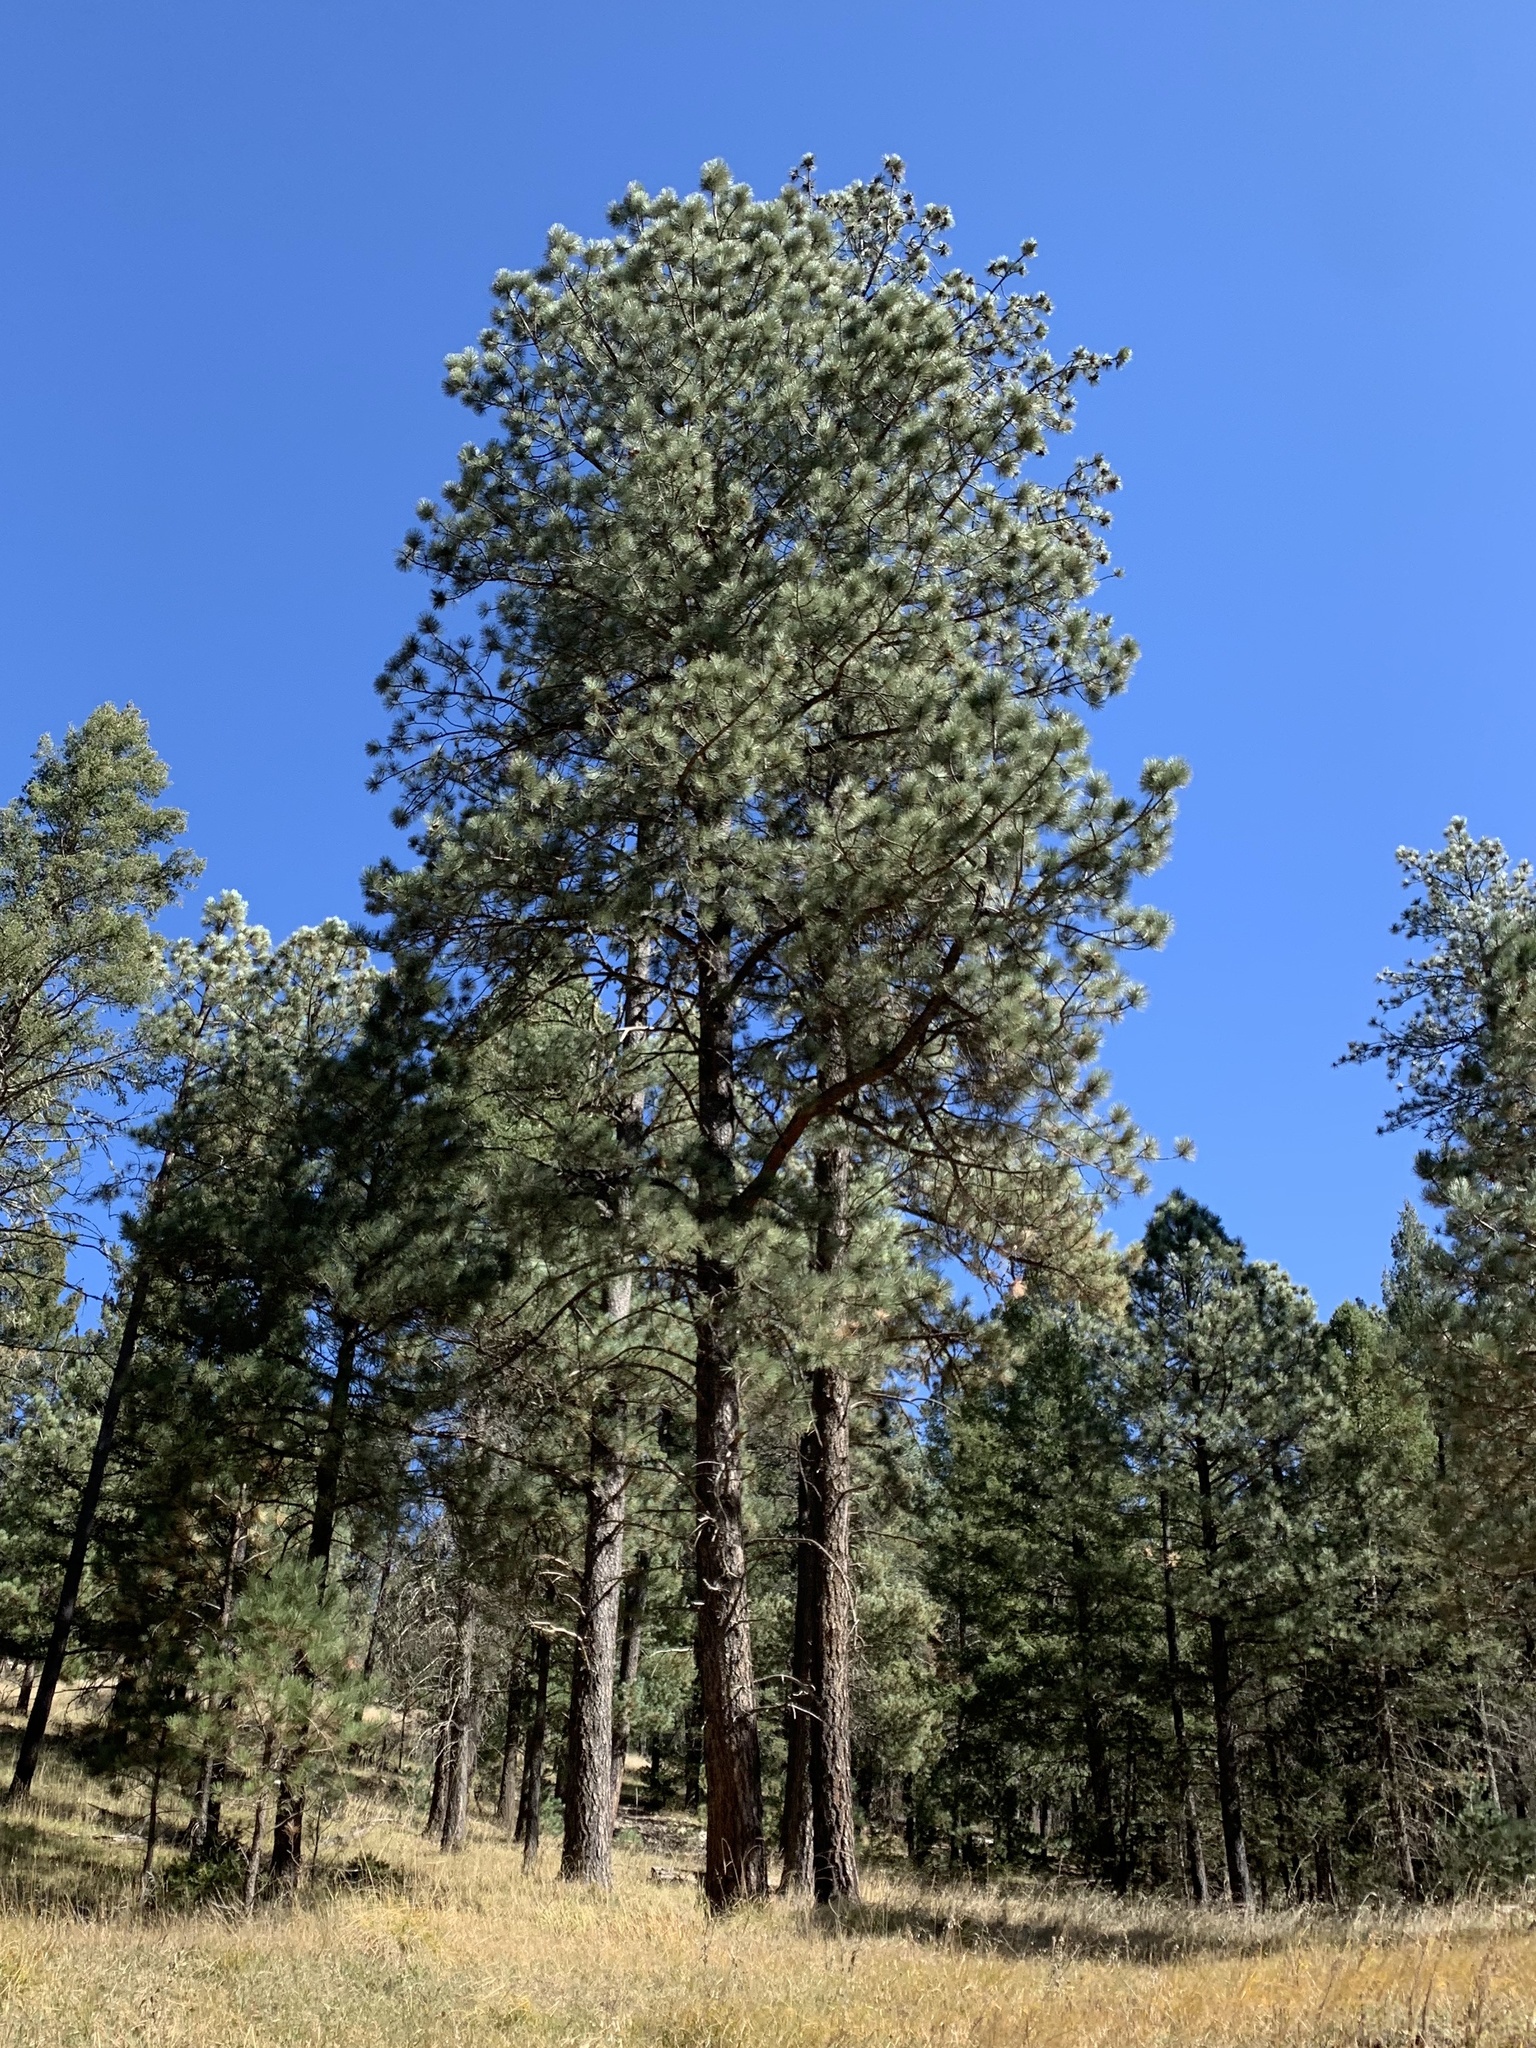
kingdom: Plantae
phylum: Tracheophyta
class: Pinopsida
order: Pinales
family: Pinaceae
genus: Pinus
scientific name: Pinus ponderosa
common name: Western yellow-pine
